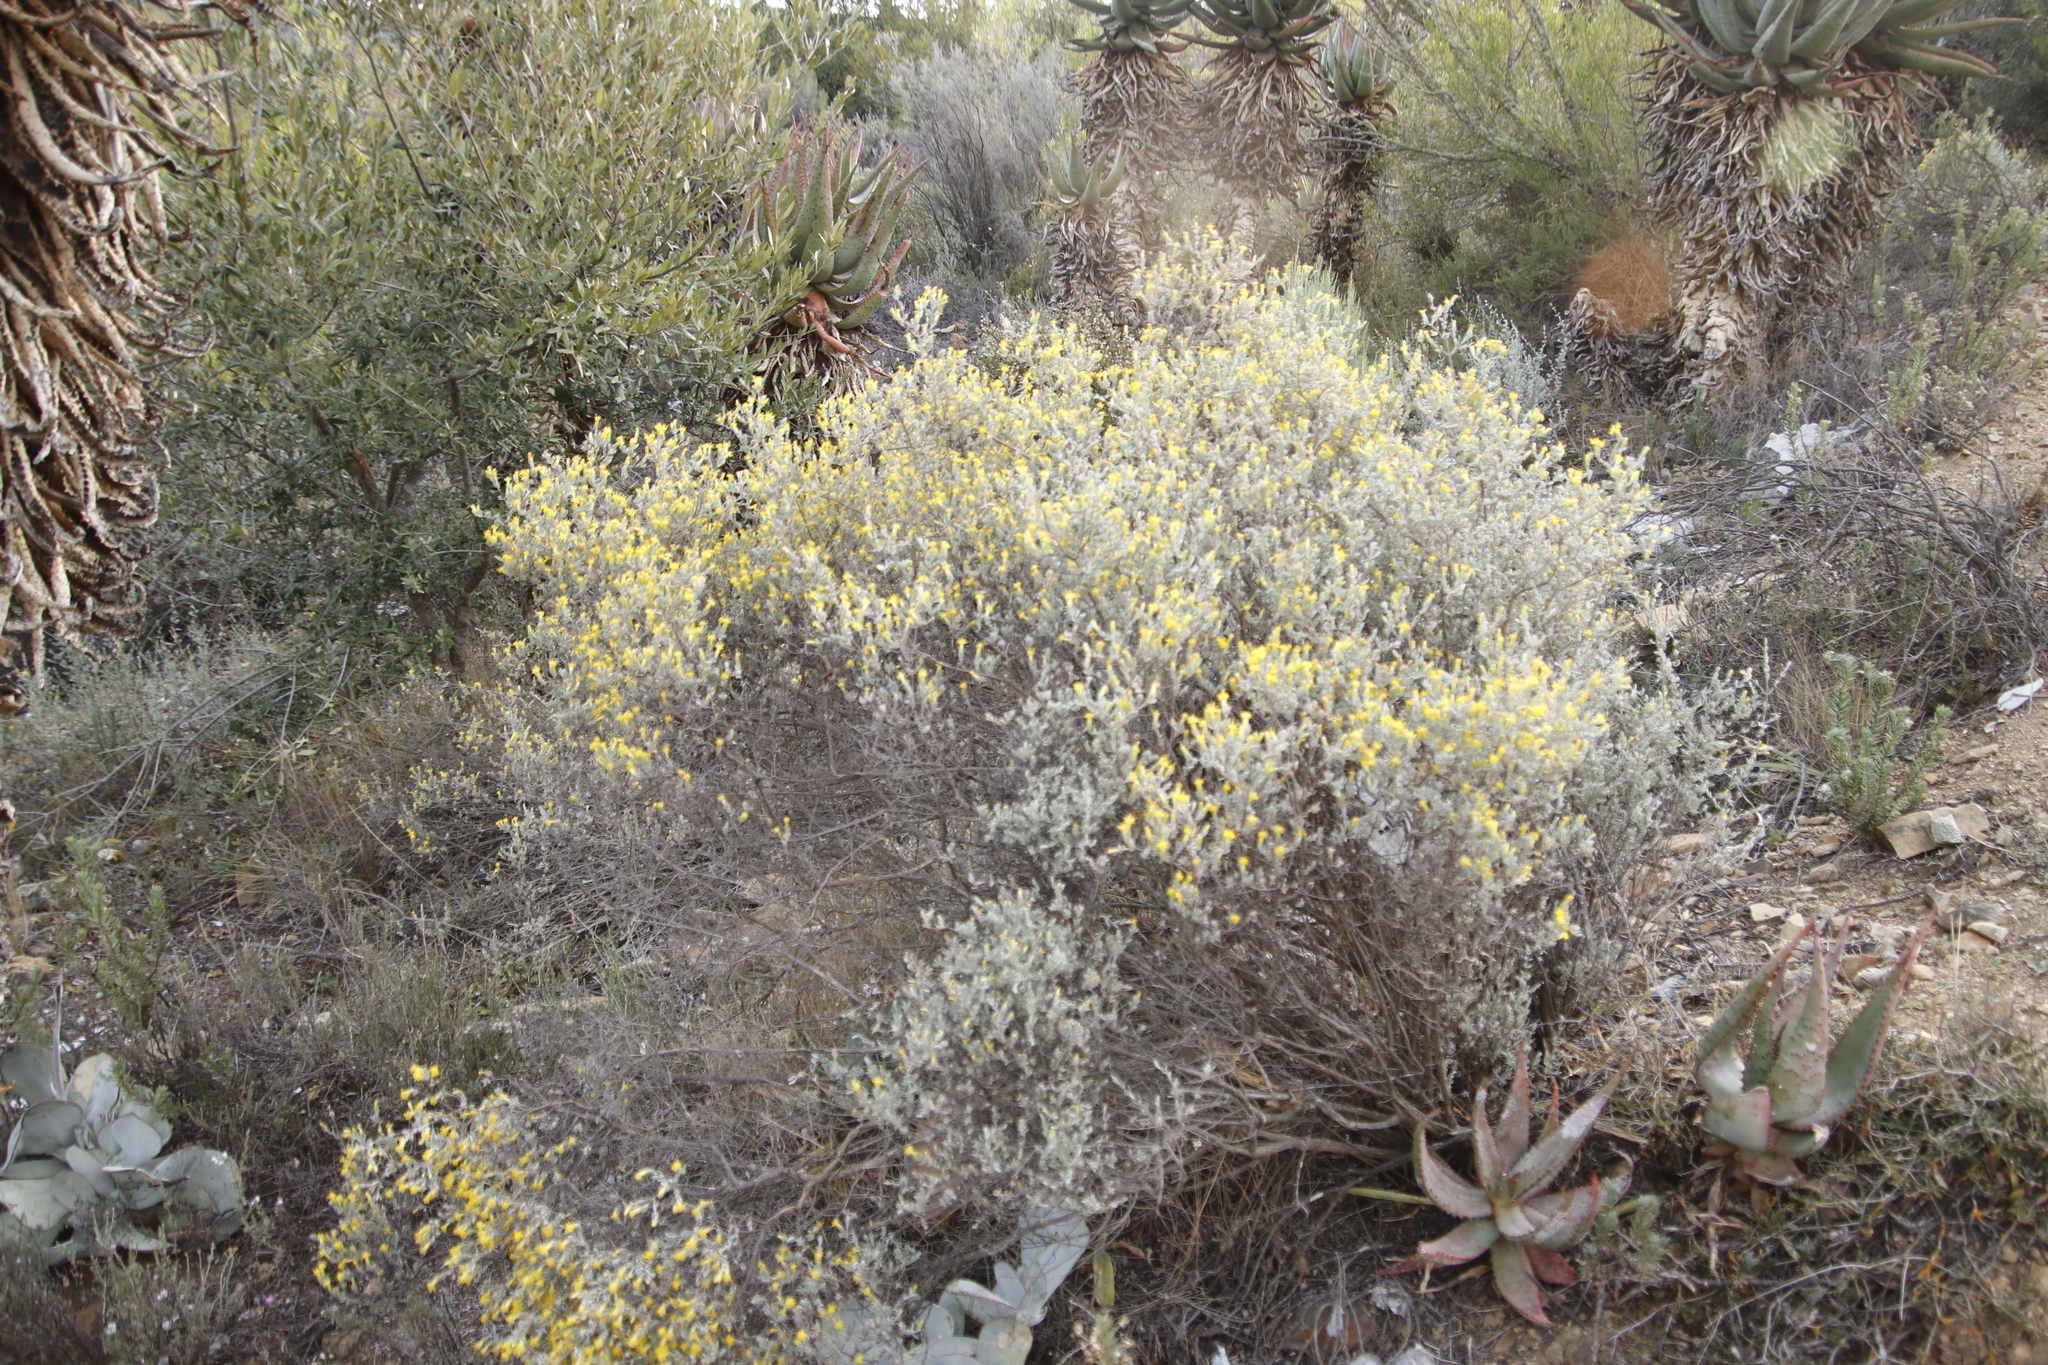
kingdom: Plantae
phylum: Tracheophyta
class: Magnoliopsida
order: Asterales
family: Asteraceae
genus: Pteronia
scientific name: Pteronia incana
